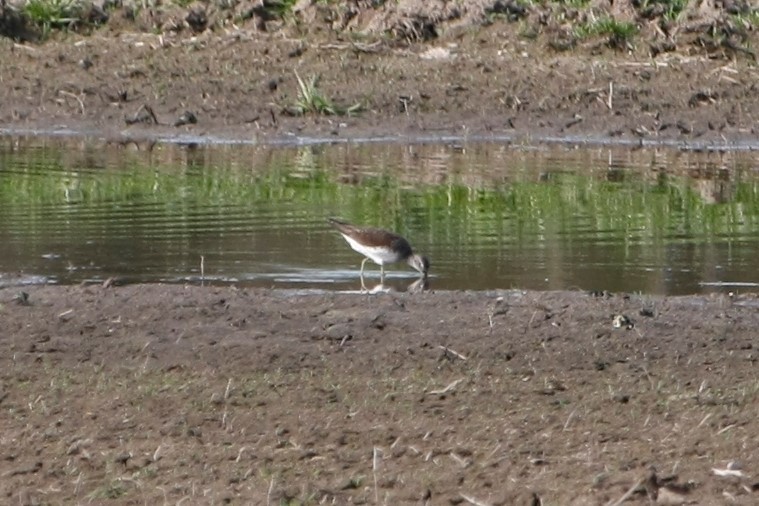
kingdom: Animalia
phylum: Chordata
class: Aves
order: Charadriiformes
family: Scolopacidae
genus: Tringa
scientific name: Tringa ochropus
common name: Green sandpiper
